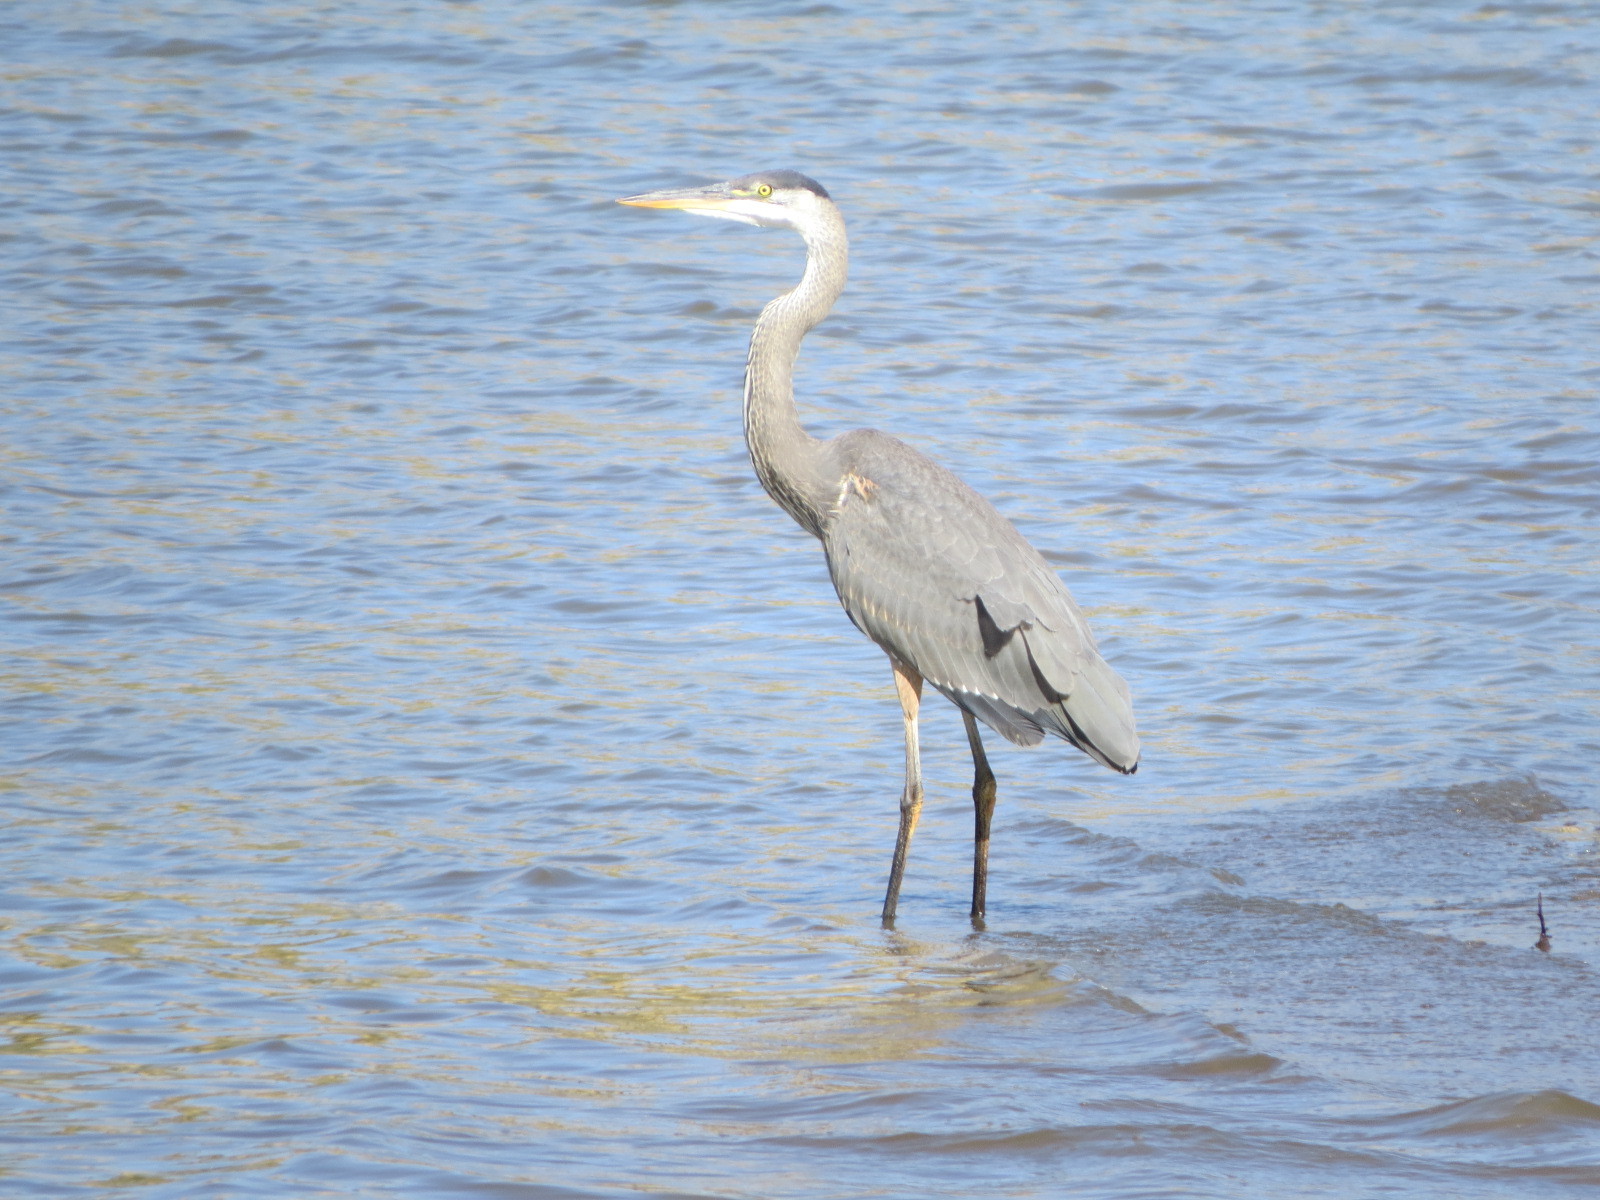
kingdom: Animalia
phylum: Chordata
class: Aves
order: Pelecaniformes
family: Ardeidae
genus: Ardea
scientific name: Ardea herodias
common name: Great blue heron
